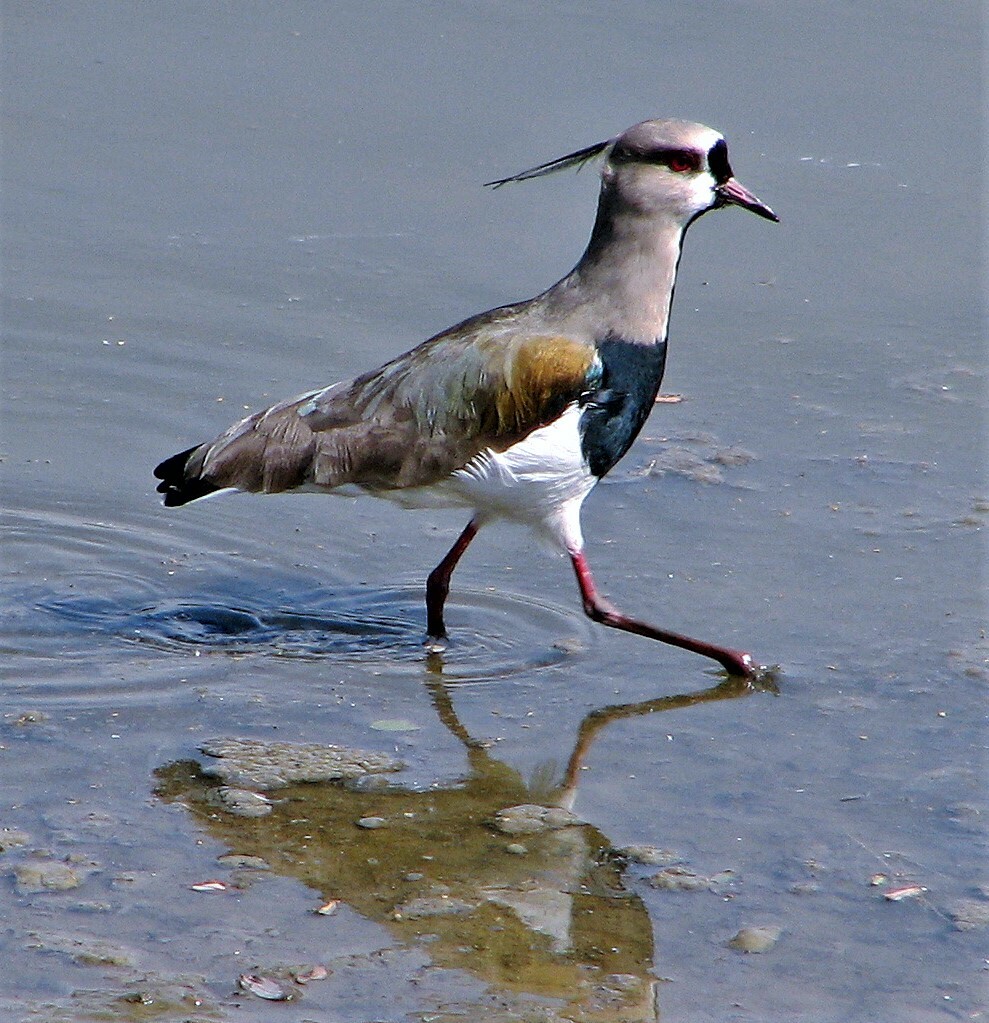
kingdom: Animalia
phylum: Chordata
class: Aves
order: Charadriiformes
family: Charadriidae
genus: Vanellus
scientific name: Vanellus chilensis
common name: Southern lapwing
